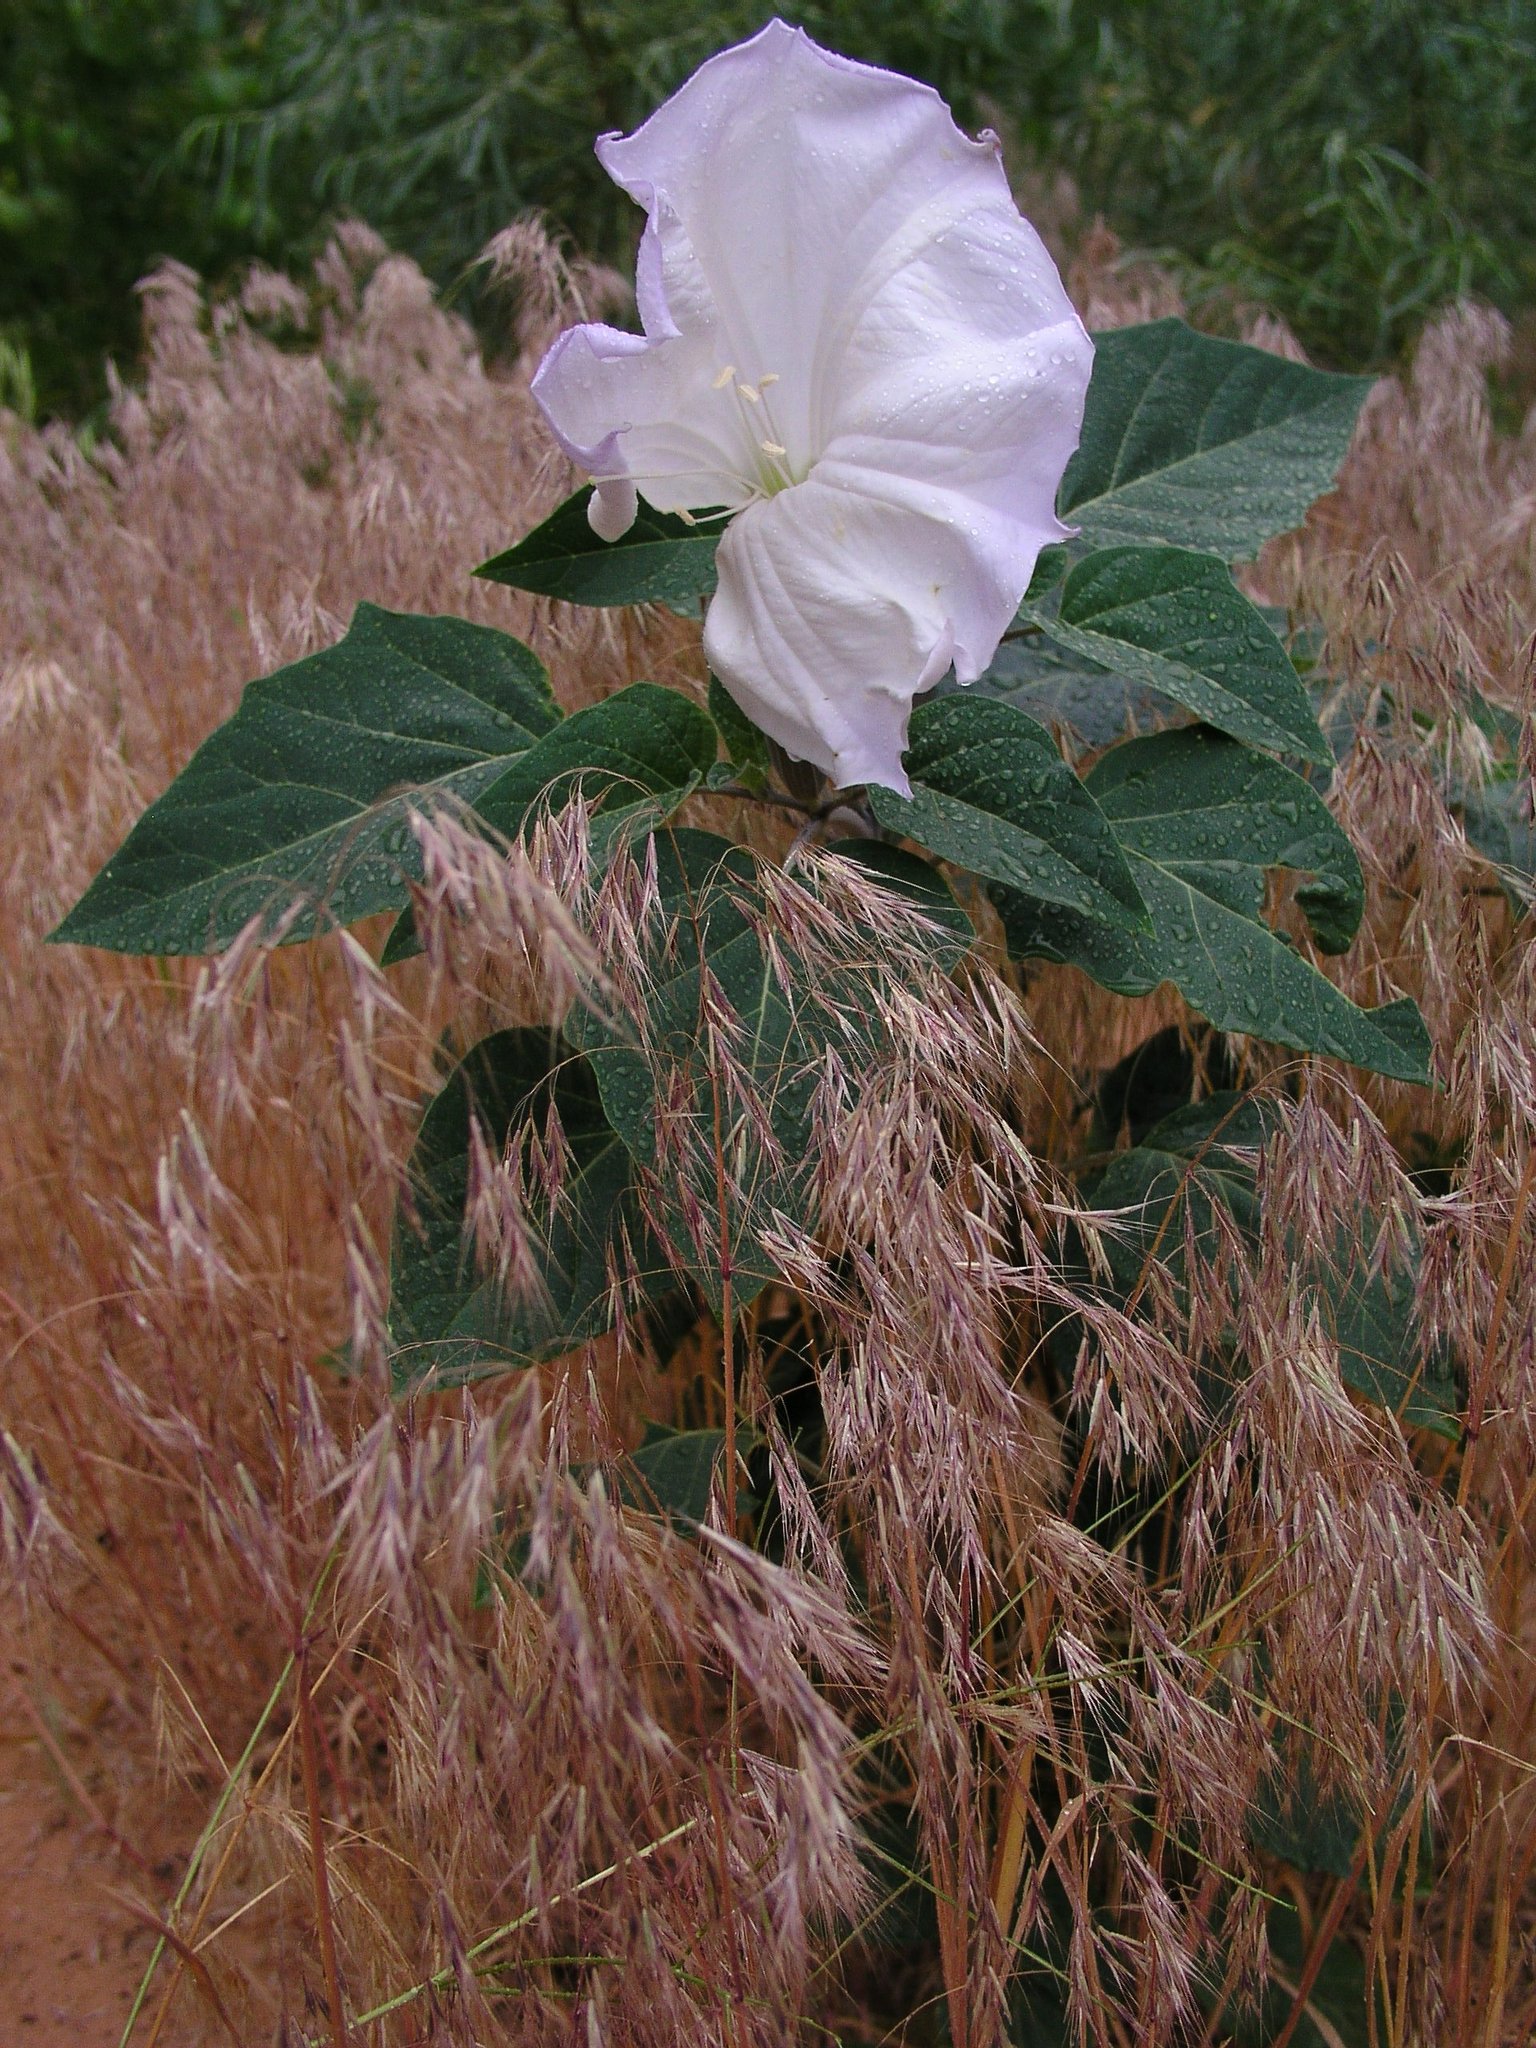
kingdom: Plantae
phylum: Tracheophyta
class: Magnoliopsida
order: Solanales
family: Solanaceae
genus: Datura
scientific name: Datura wrightii
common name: Sacred thorn-apple
